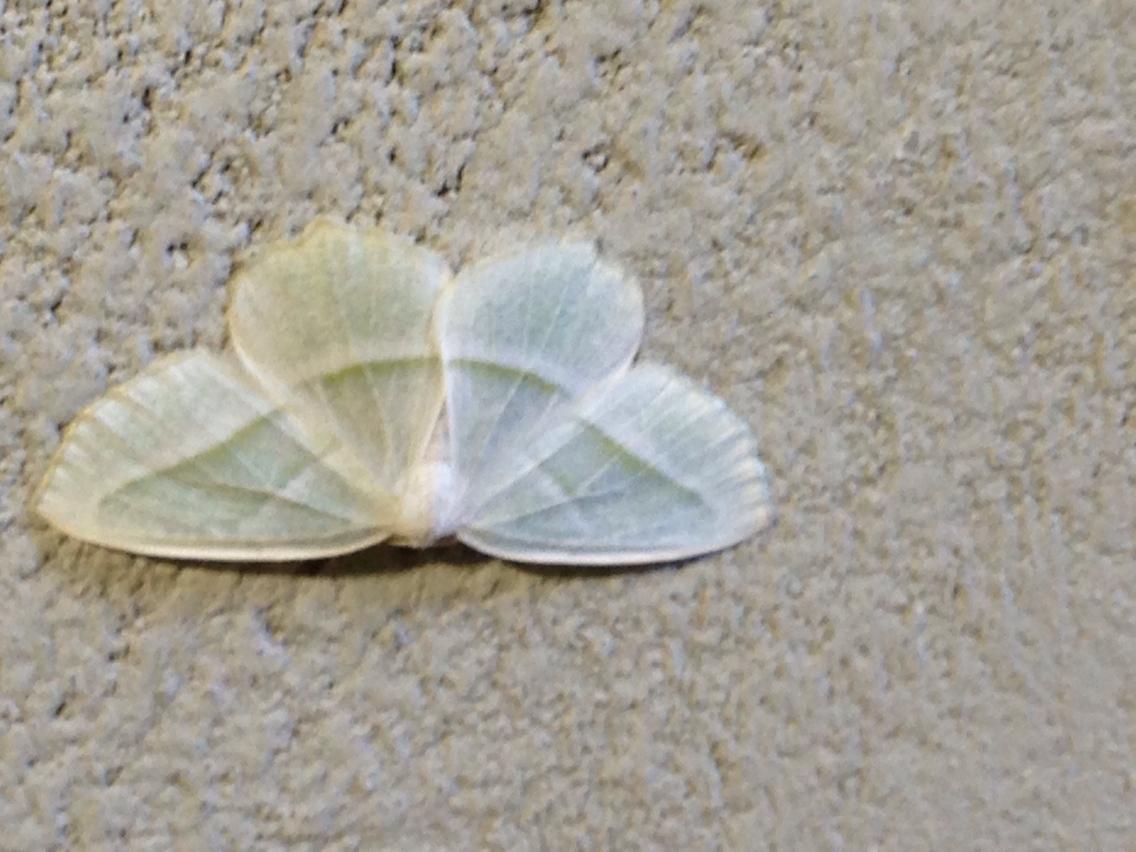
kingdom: Animalia
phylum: Arthropoda
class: Insecta
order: Lepidoptera
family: Geometridae
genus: Campaea
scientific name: Campaea perlata
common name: Fringed looper
